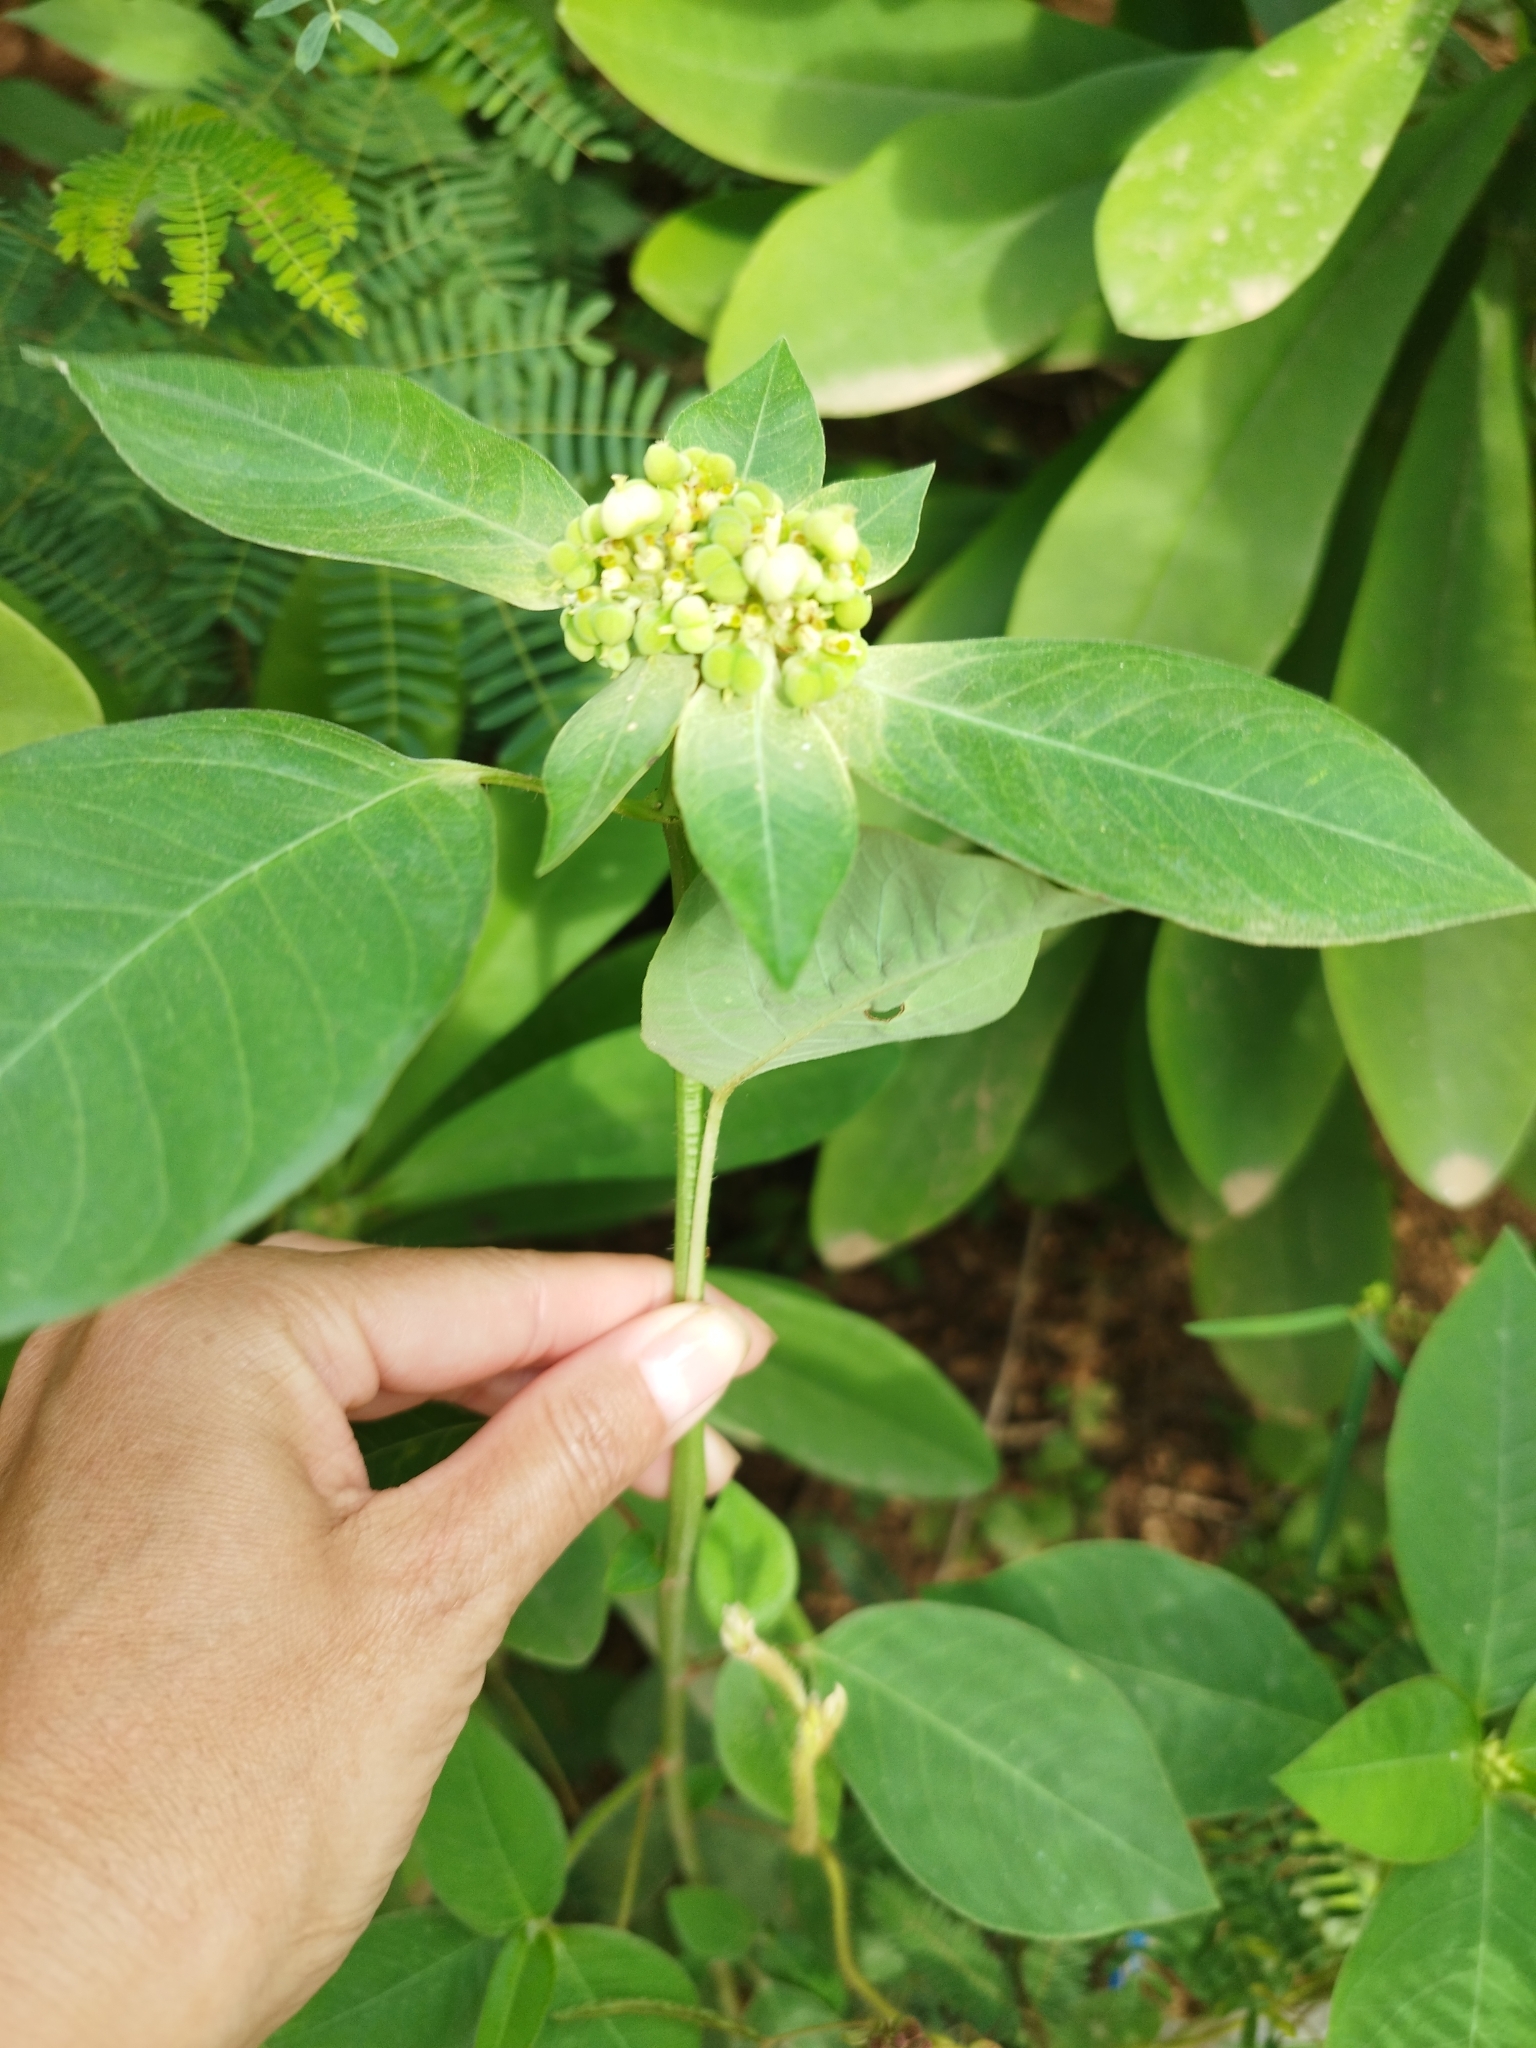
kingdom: Plantae
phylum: Tracheophyta
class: Magnoliopsida
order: Malpighiales
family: Euphorbiaceae
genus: Euphorbia
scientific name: Euphorbia heterophylla
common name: Mexican fireplant
